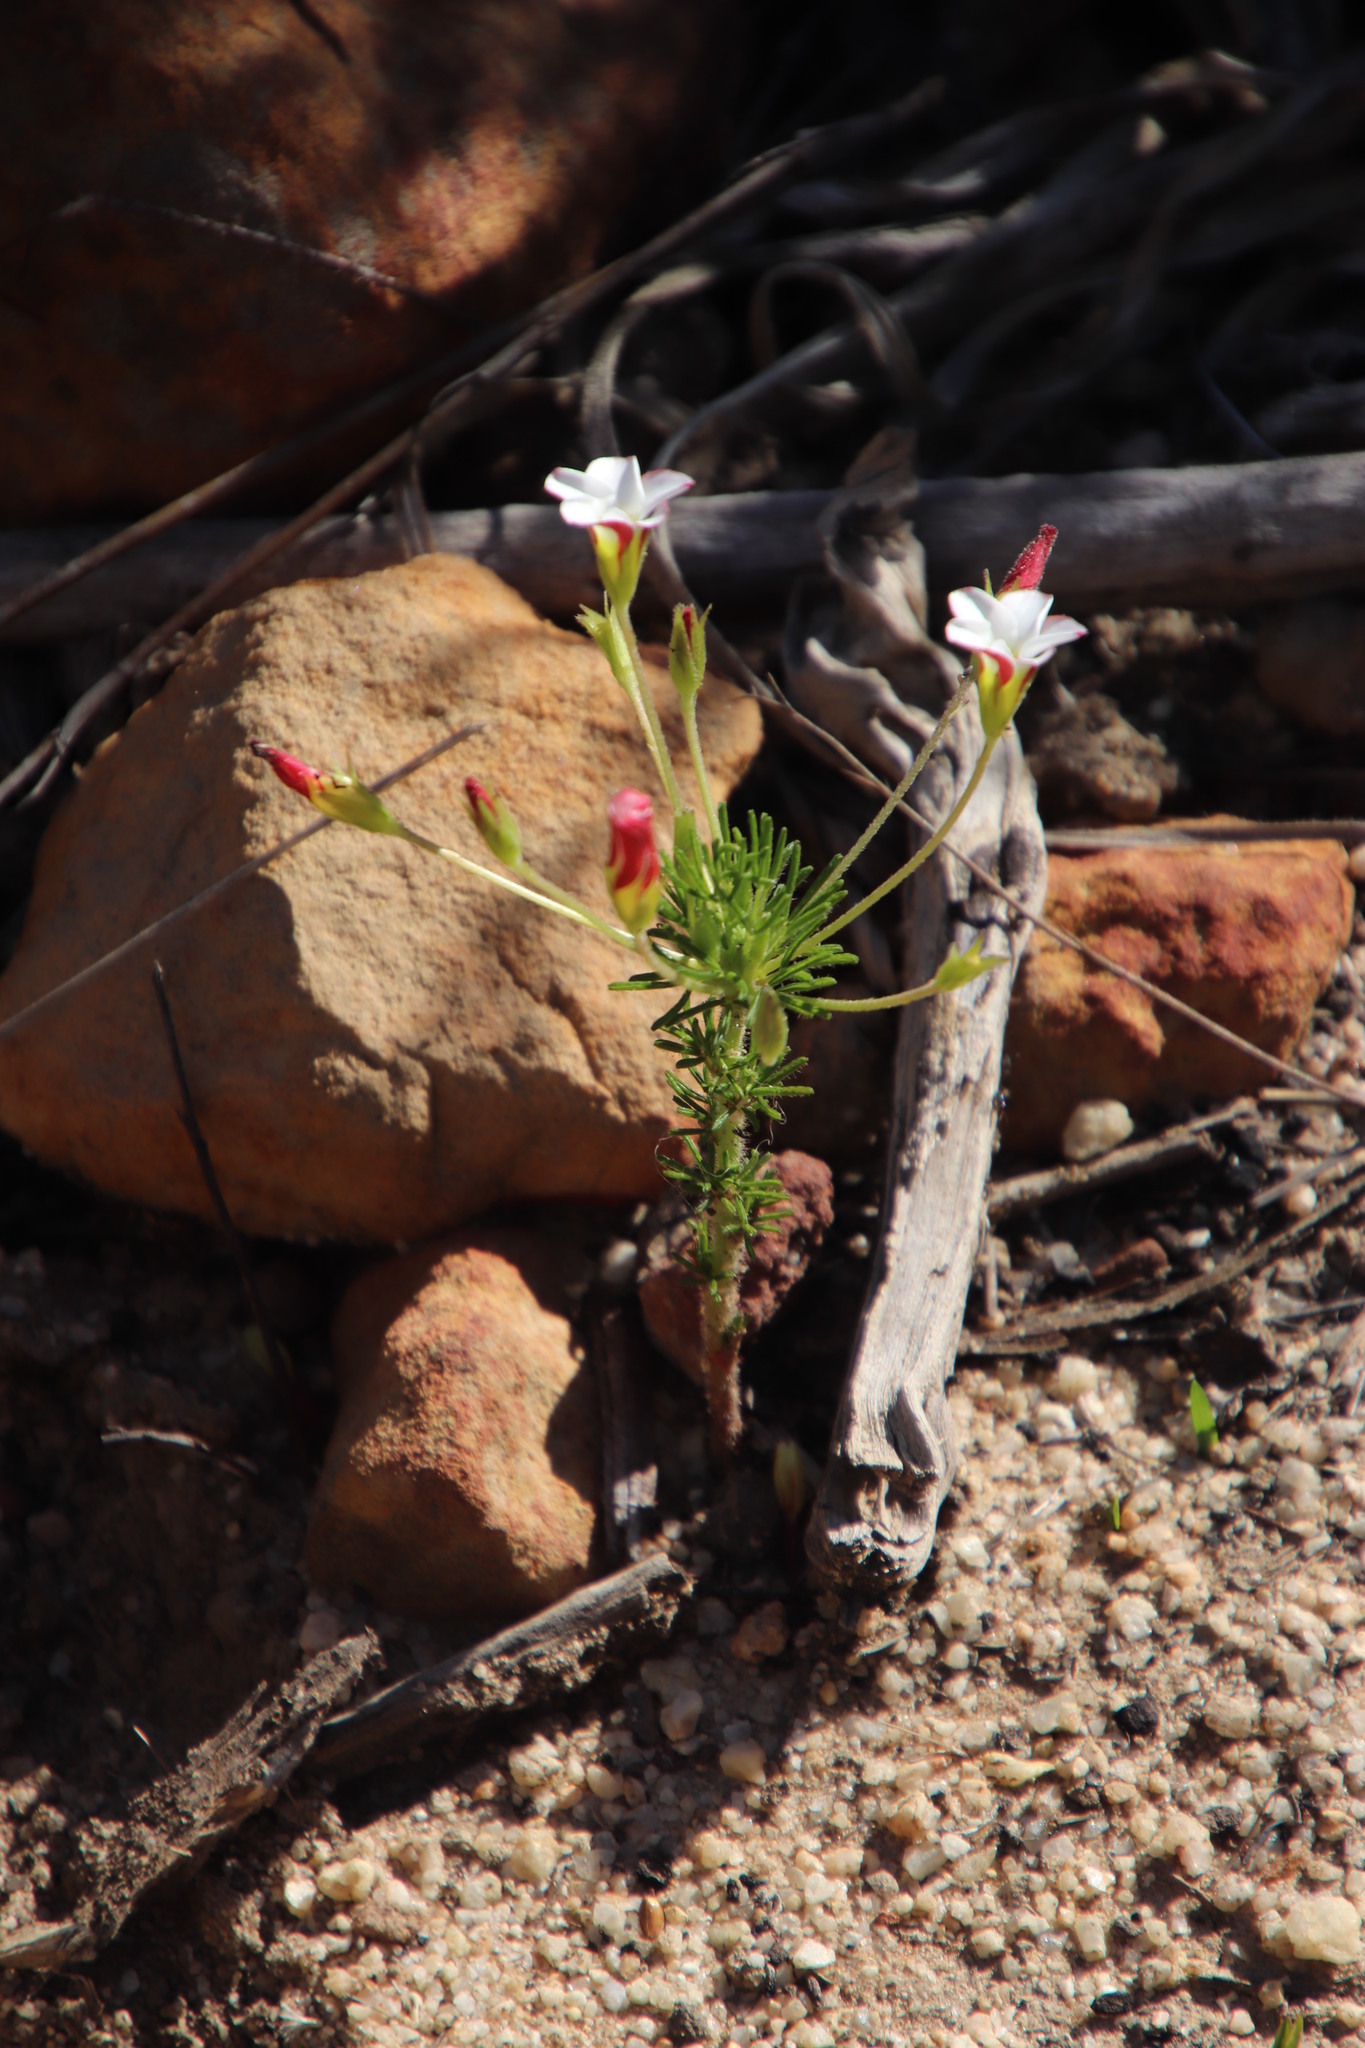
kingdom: Plantae
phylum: Tracheophyta
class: Magnoliopsida
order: Oxalidales
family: Oxalidaceae
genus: Oxalis
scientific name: Oxalis tenuifolia
